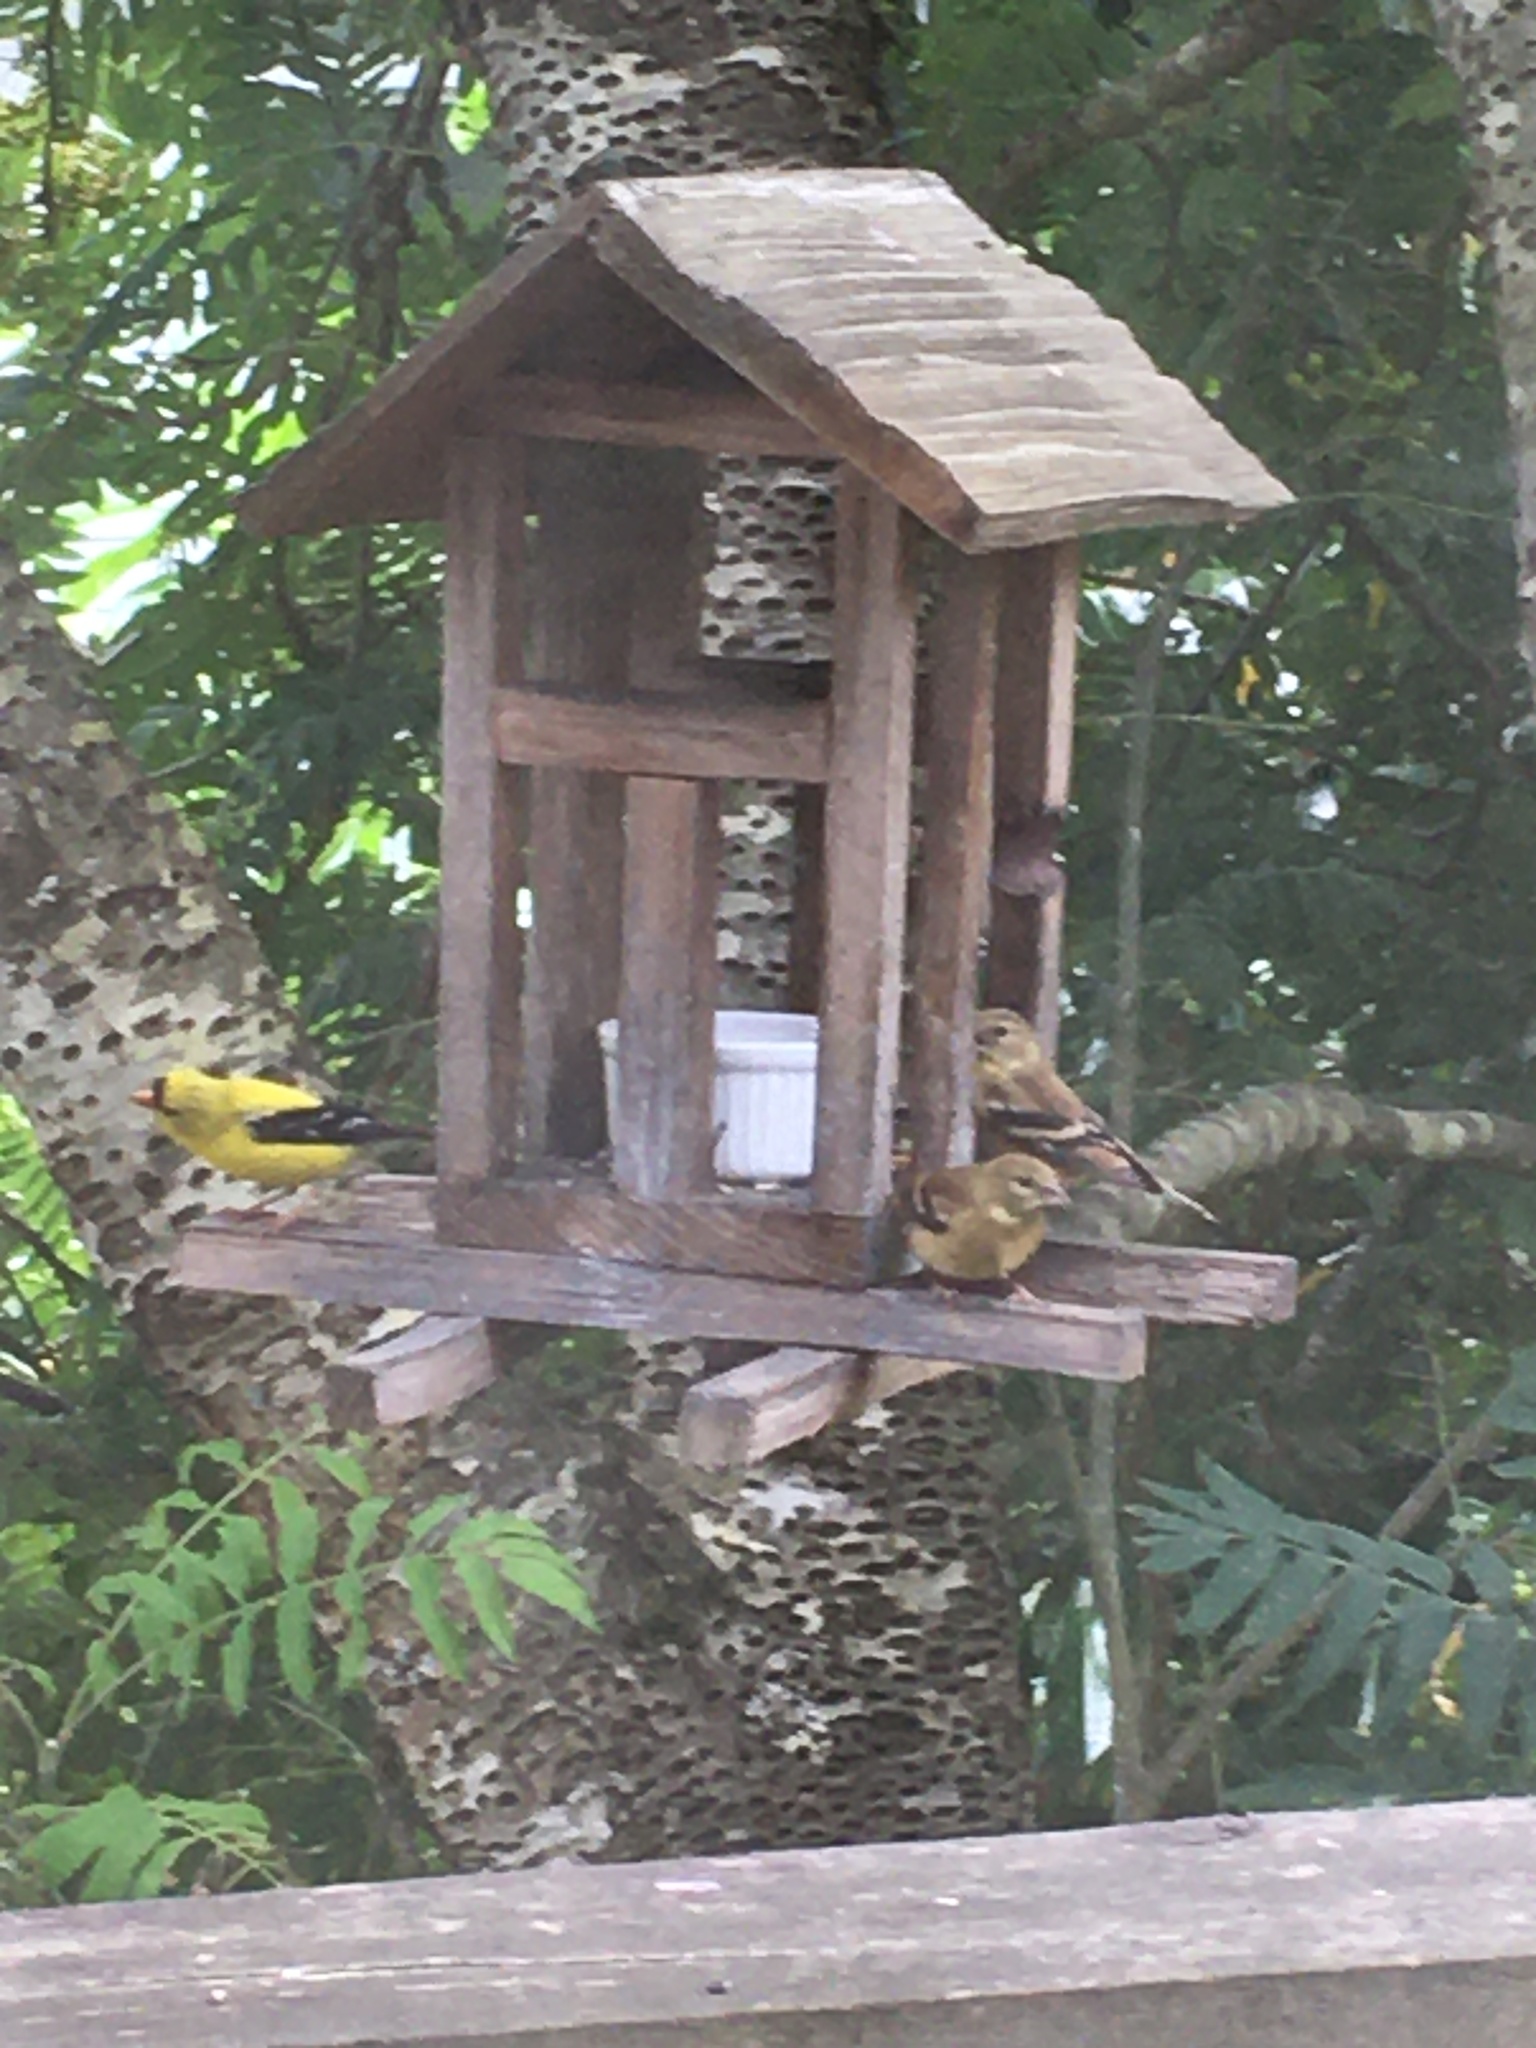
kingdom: Animalia
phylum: Chordata
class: Aves
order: Passeriformes
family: Fringillidae
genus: Spinus
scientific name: Spinus tristis
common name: American goldfinch
